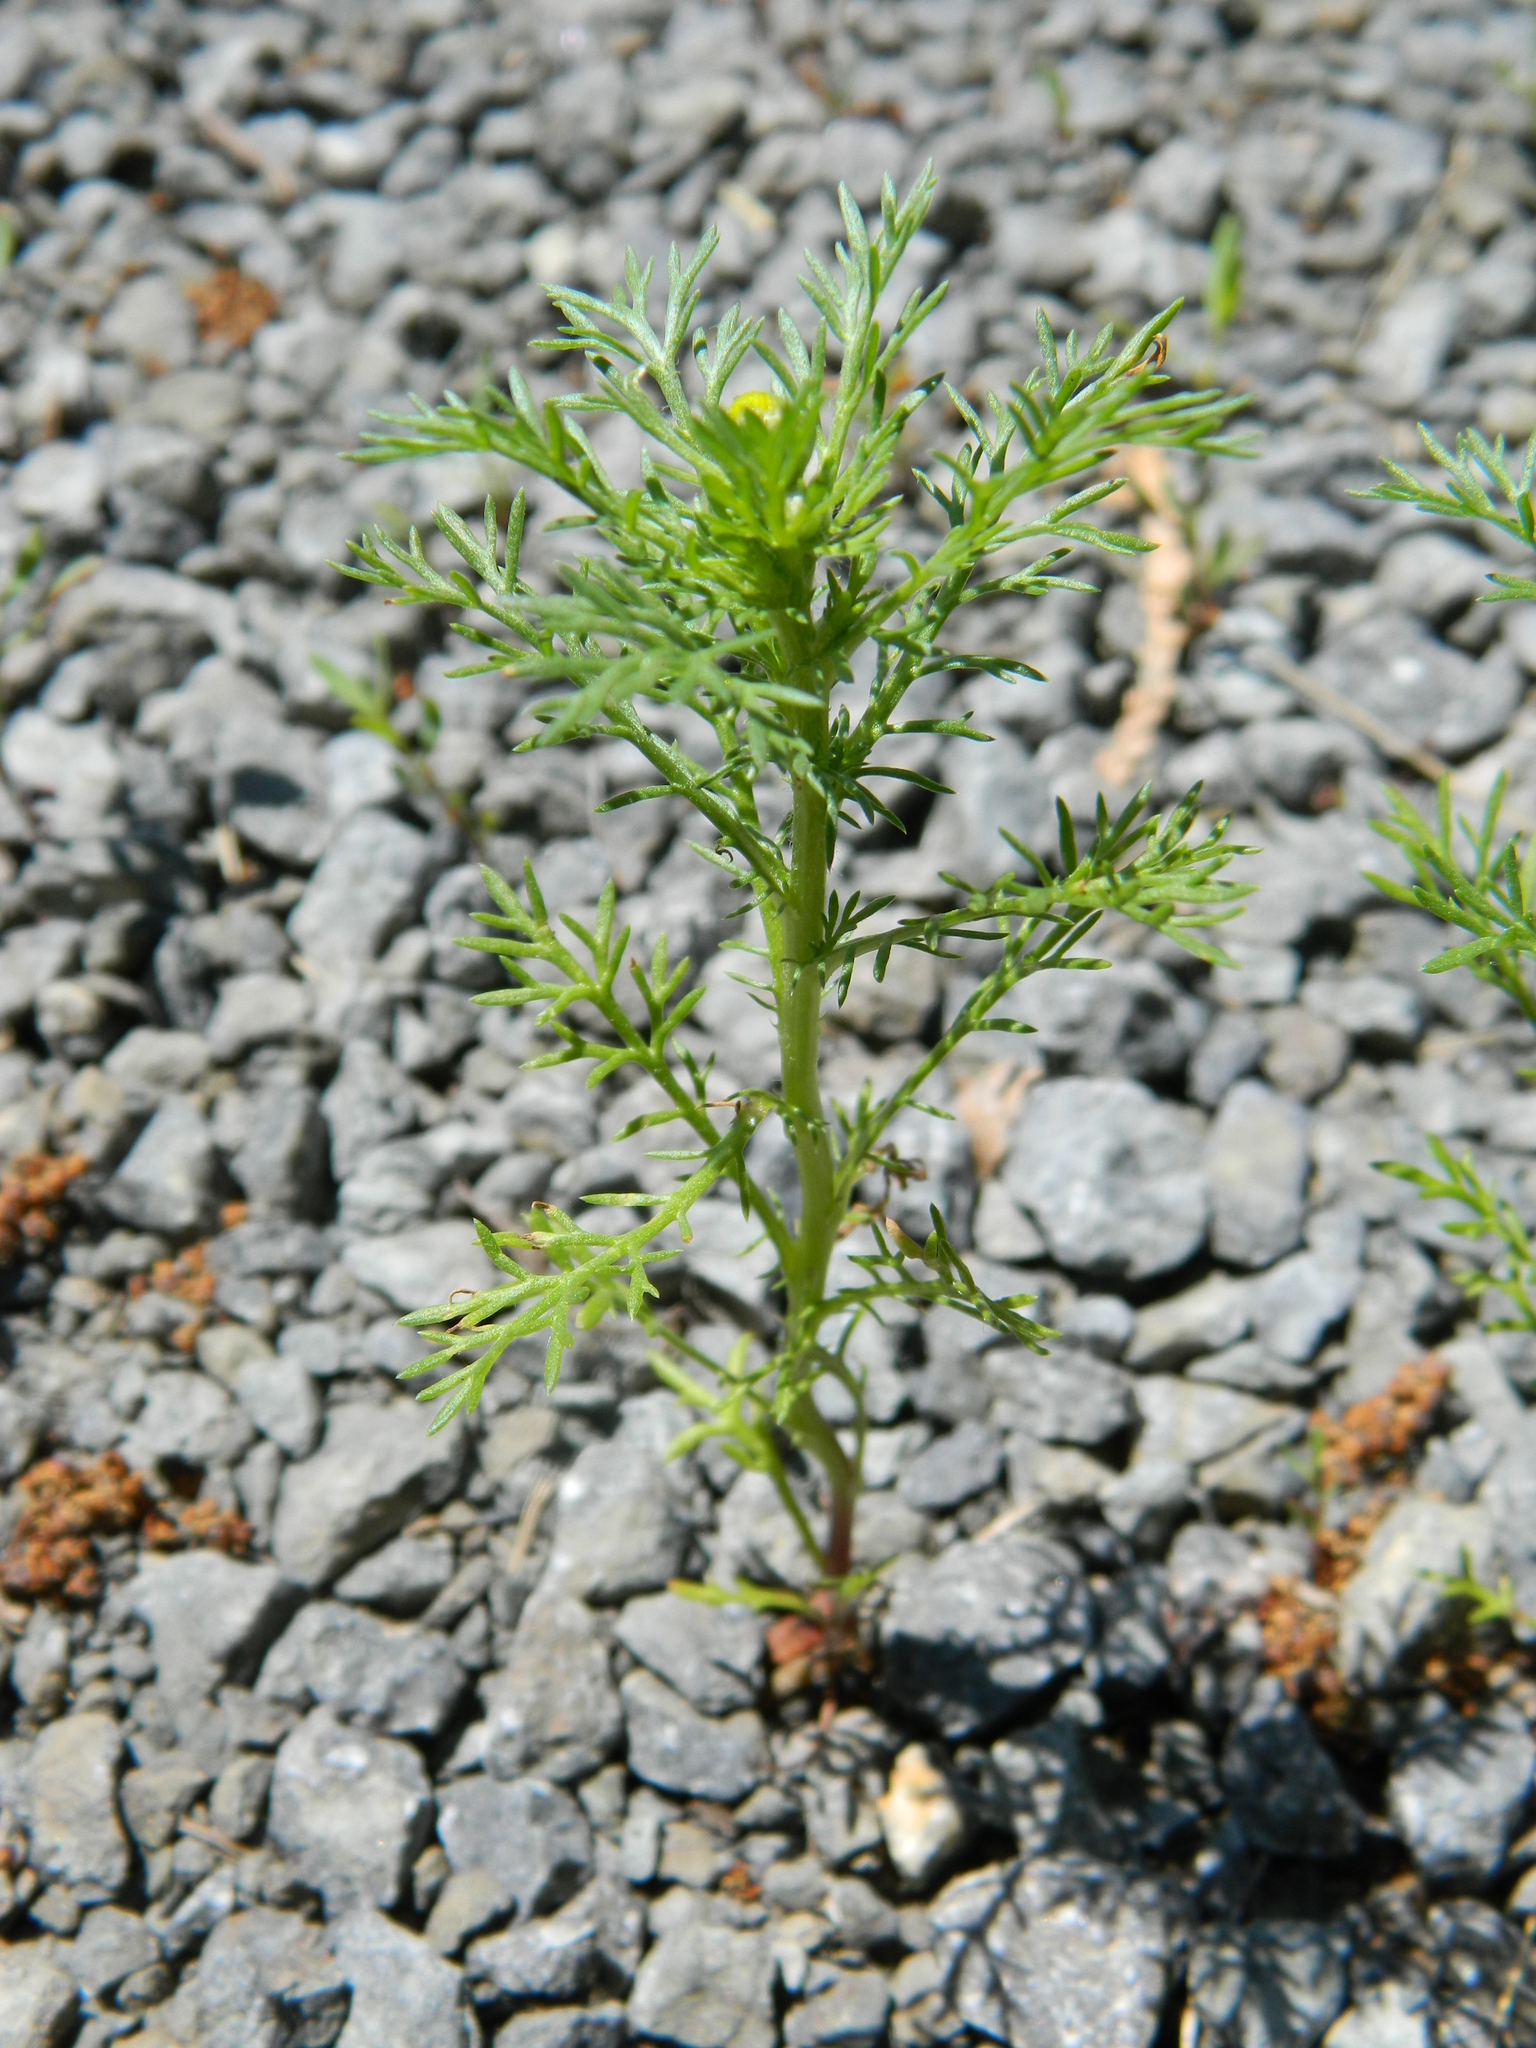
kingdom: Plantae
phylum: Tracheophyta
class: Magnoliopsida
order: Asterales
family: Asteraceae
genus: Matricaria
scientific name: Matricaria discoidea
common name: Disc mayweed
